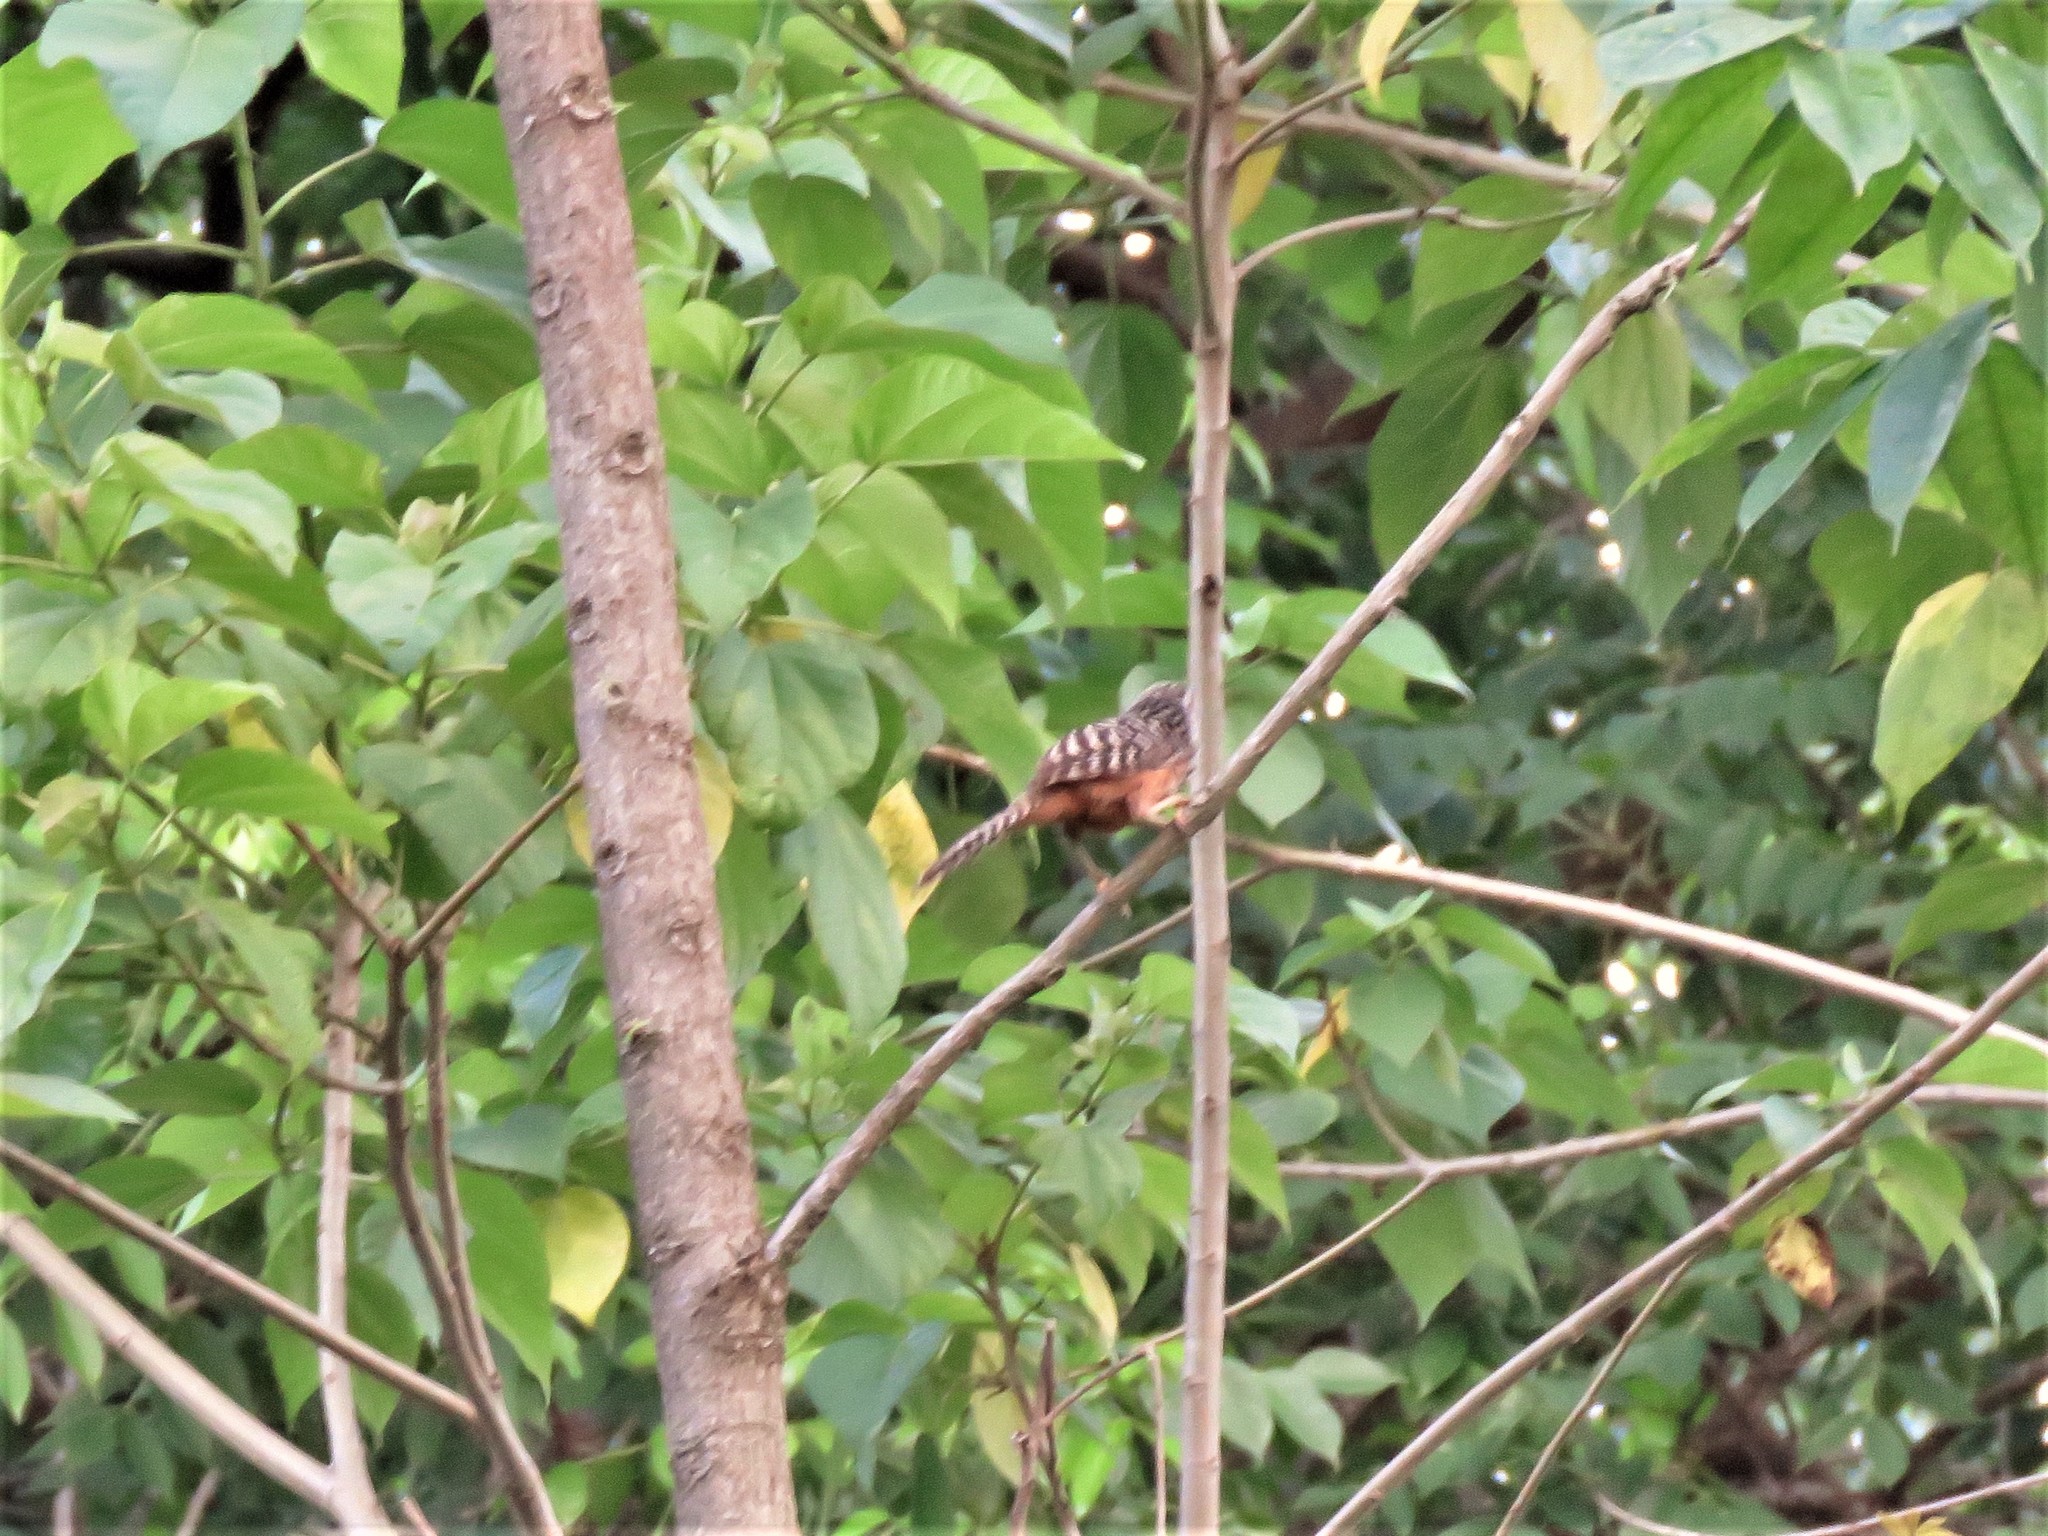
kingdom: Animalia
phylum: Chordata
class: Aves
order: Passeriformes
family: Troglodytidae
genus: Campylorhynchus
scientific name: Campylorhynchus zonatus
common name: Band-backed wren
